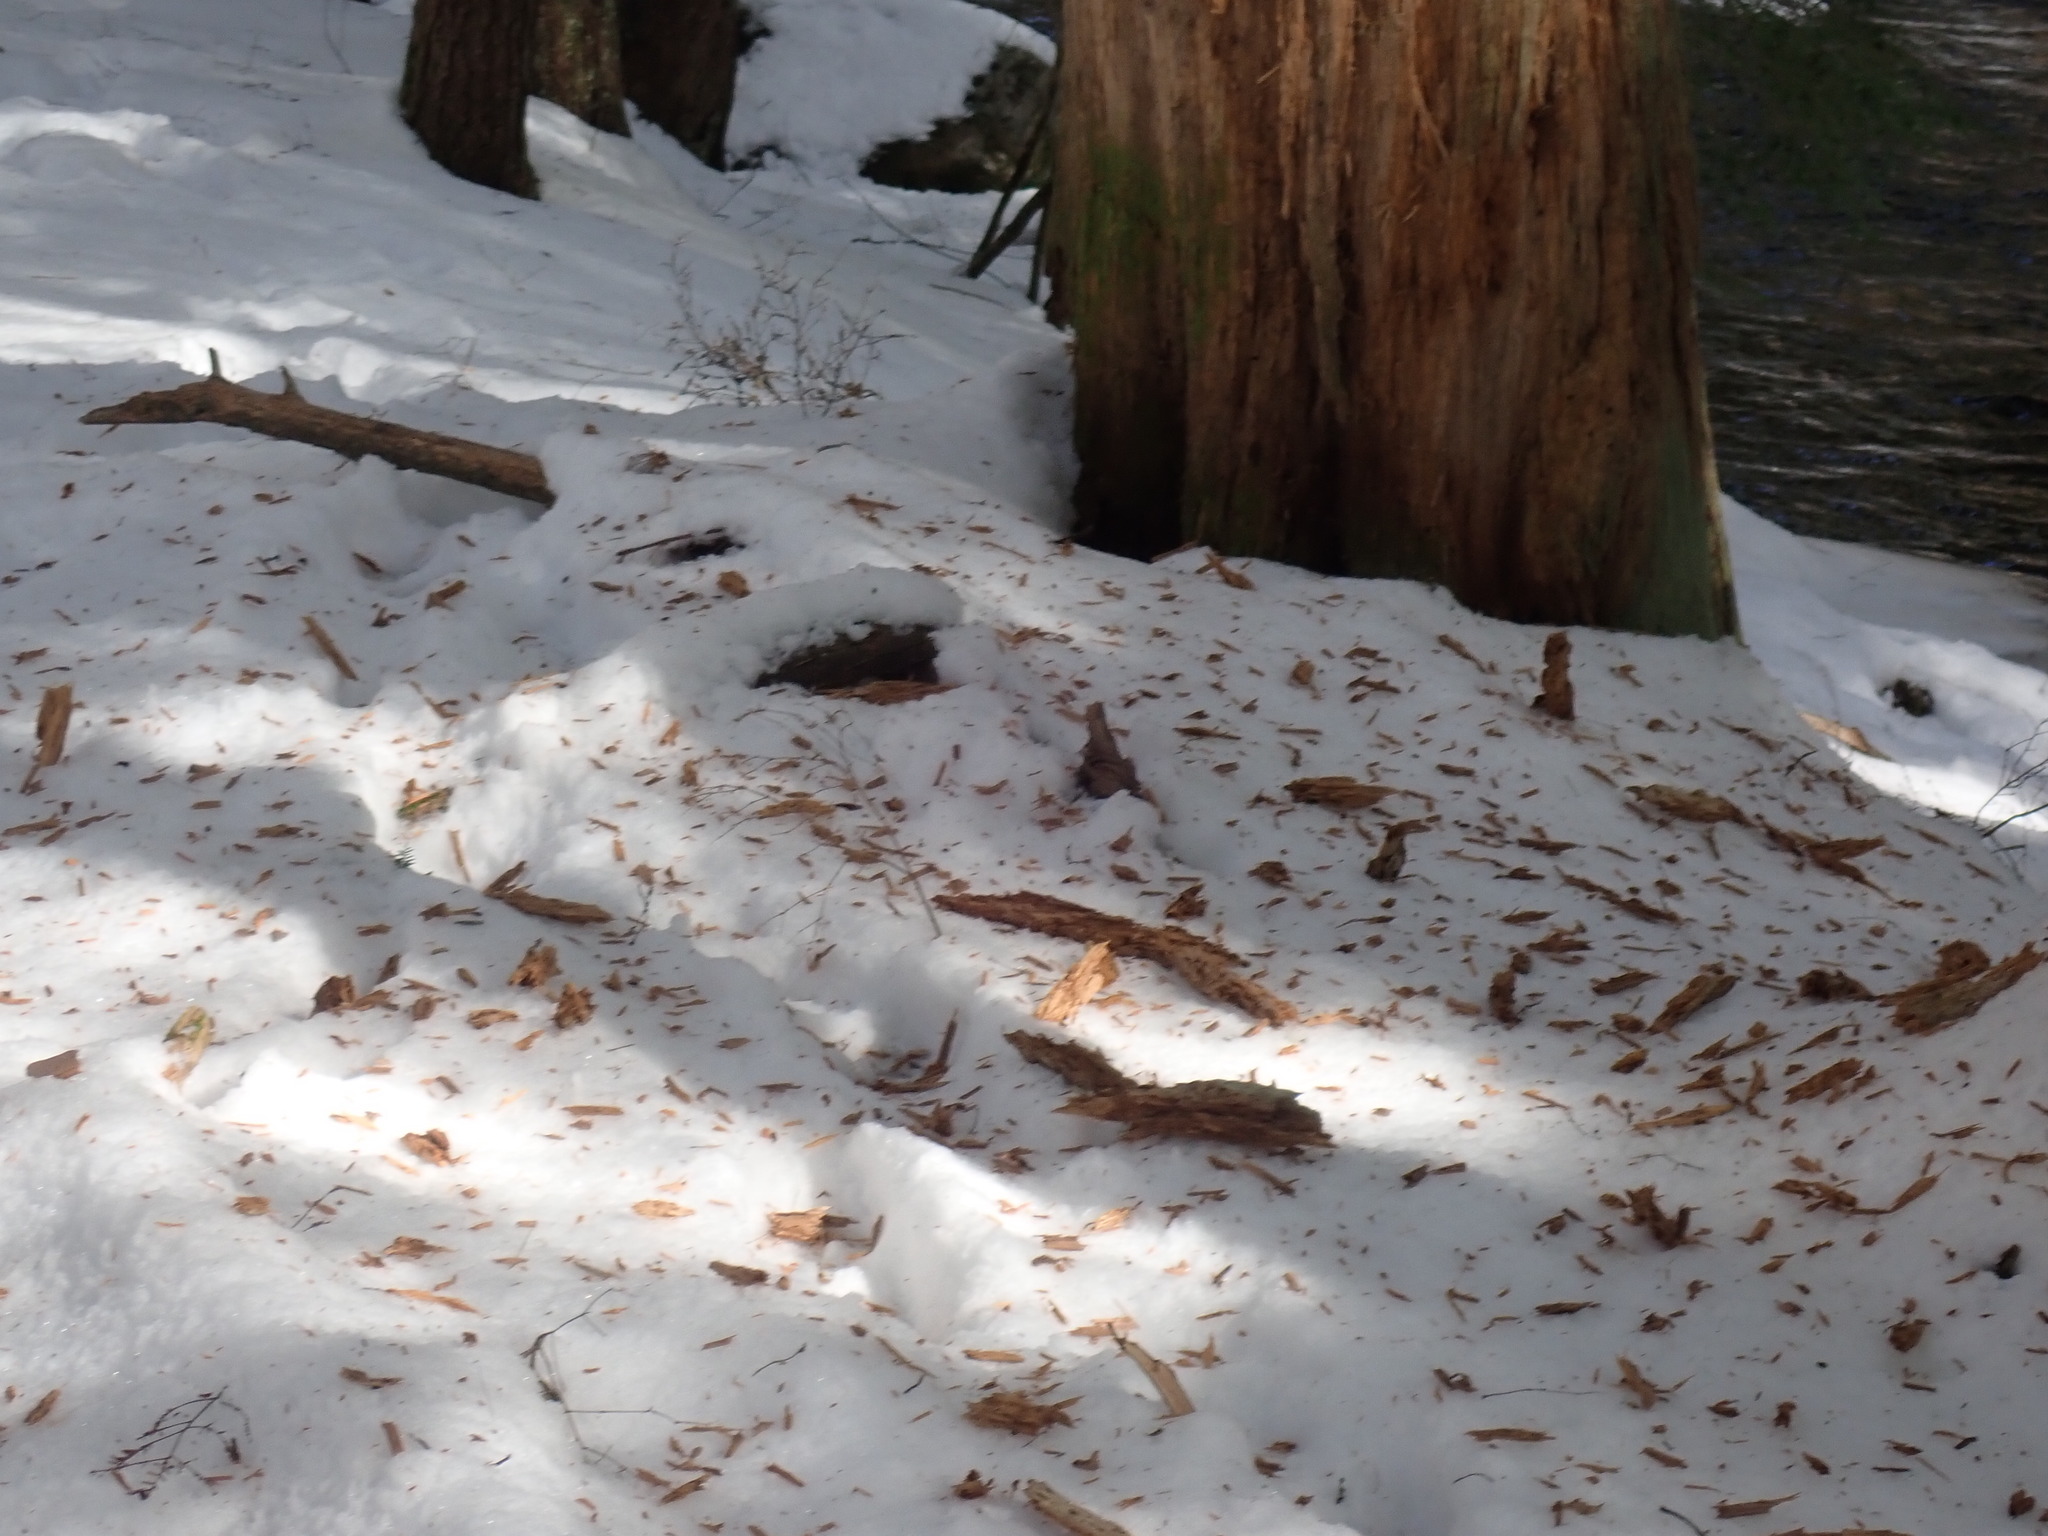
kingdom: Animalia
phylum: Chordata
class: Aves
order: Piciformes
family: Picidae
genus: Dryocopus
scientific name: Dryocopus pileatus
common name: Pileated woodpecker
